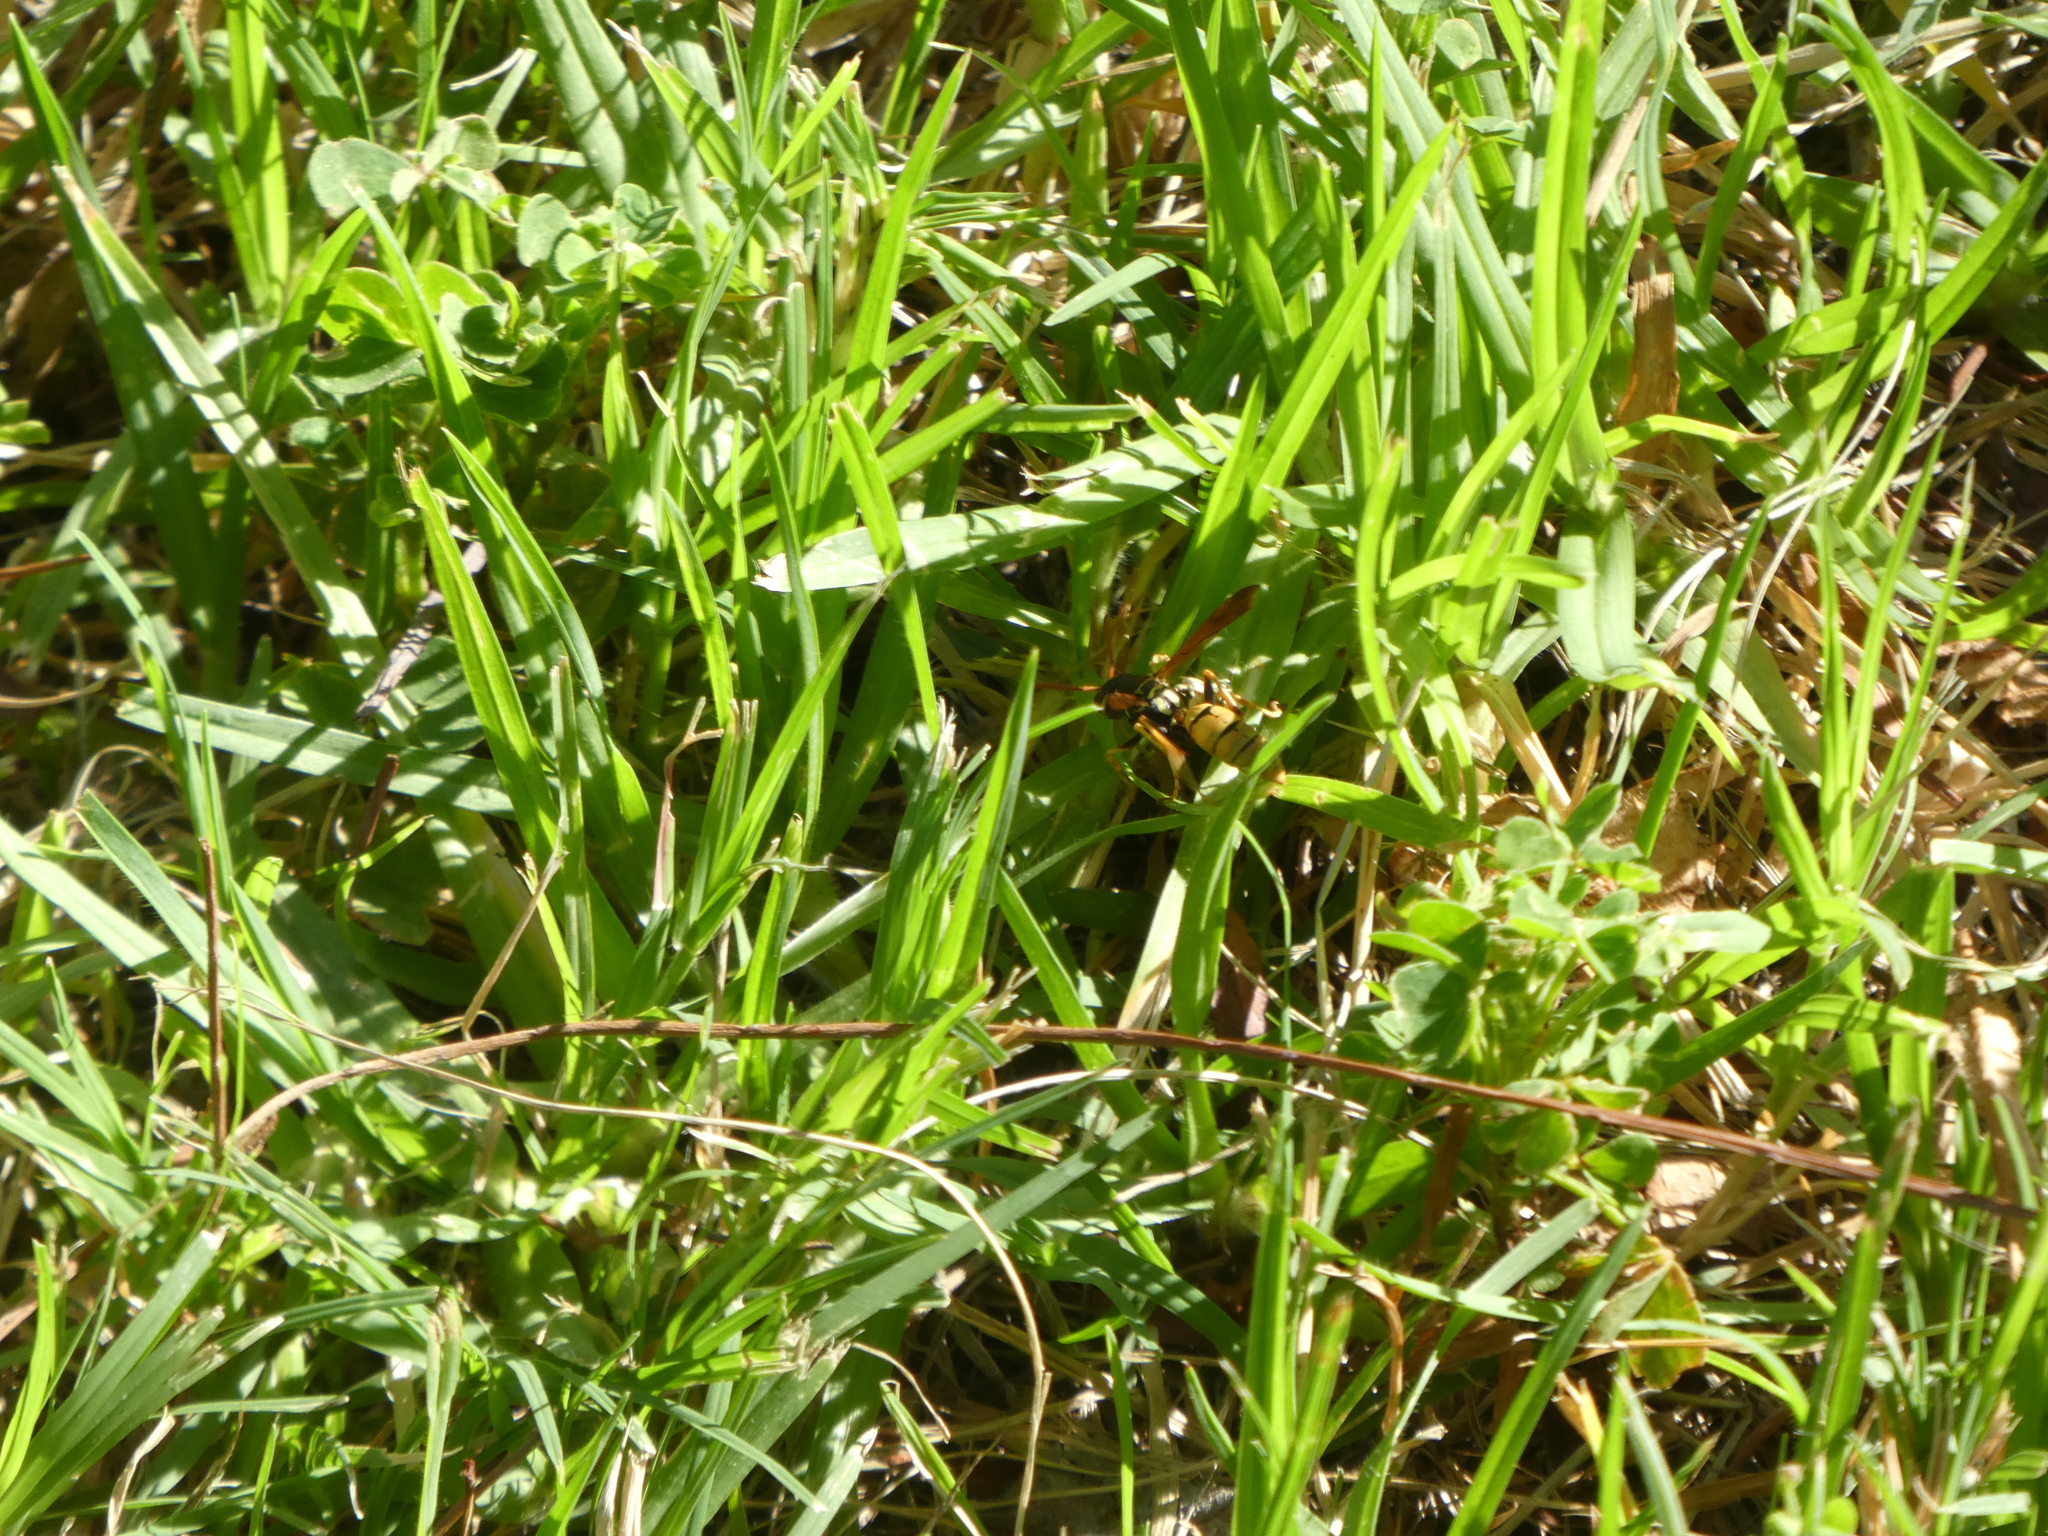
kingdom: Animalia
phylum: Arthropoda
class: Insecta
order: Hymenoptera
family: Eumenidae
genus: Polistes
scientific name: Polistes aurifer
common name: Paper wasp
